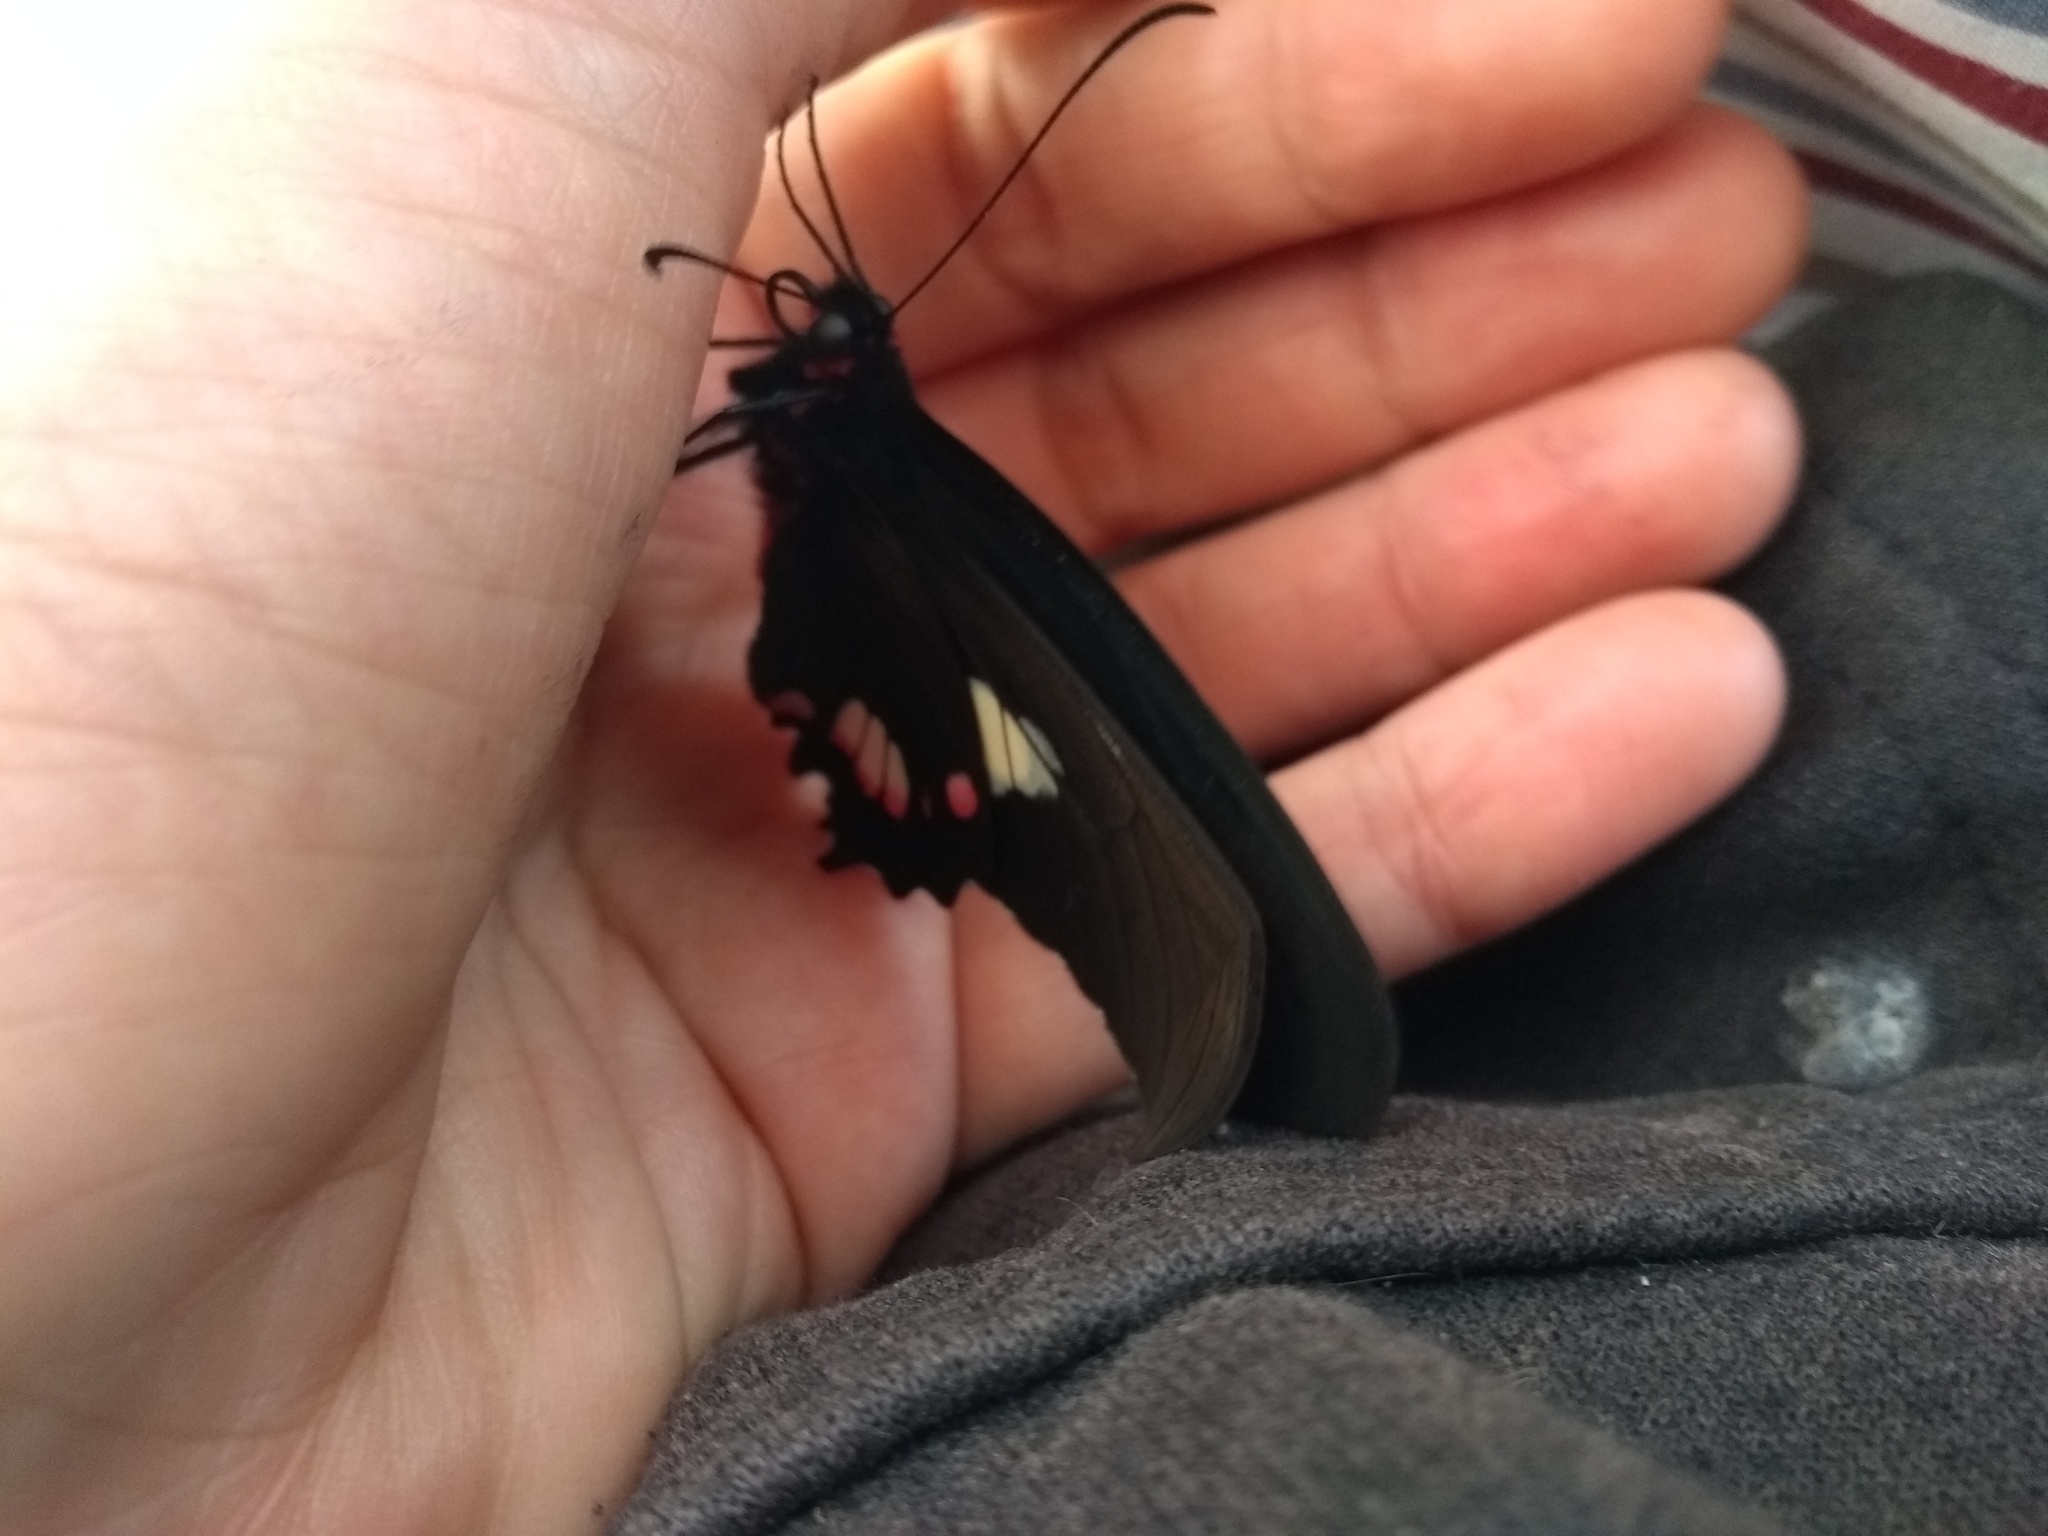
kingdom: Animalia
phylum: Arthropoda
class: Insecta
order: Lepidoptera
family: Papilionidae
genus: Parides
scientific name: Parides anchises
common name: Cattle heart
